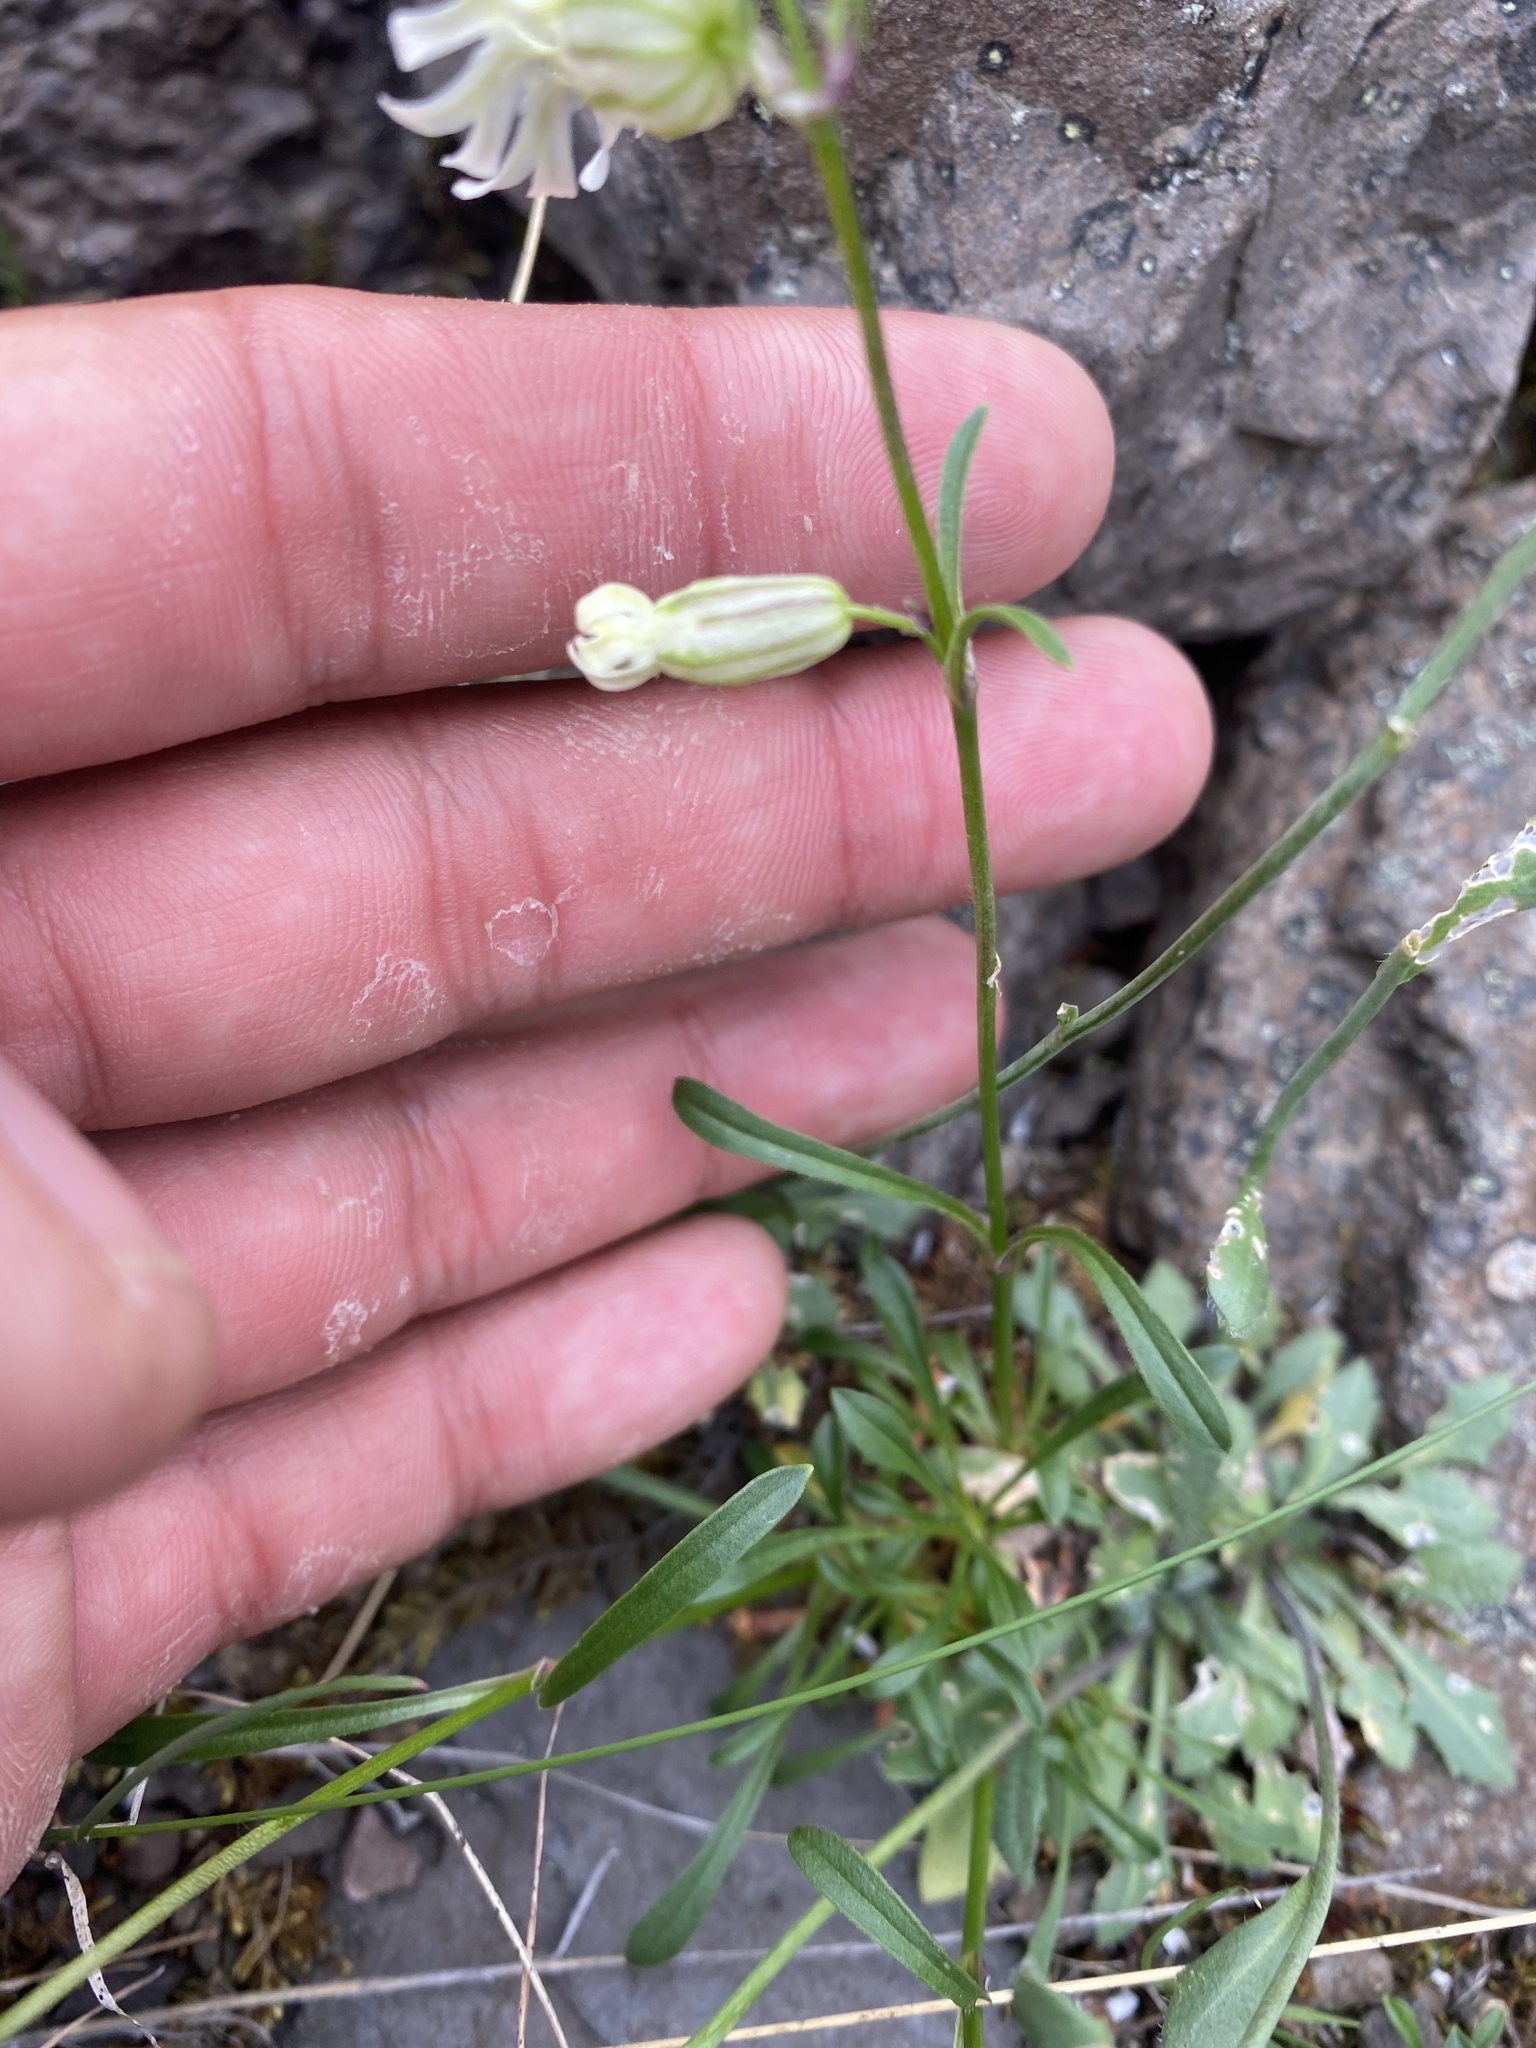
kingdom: Plantae
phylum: Tracheophyta
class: Magnoliopsida
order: Caryophyllales
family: Caryophyllaceae
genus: Silene
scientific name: Silene chamarensis
